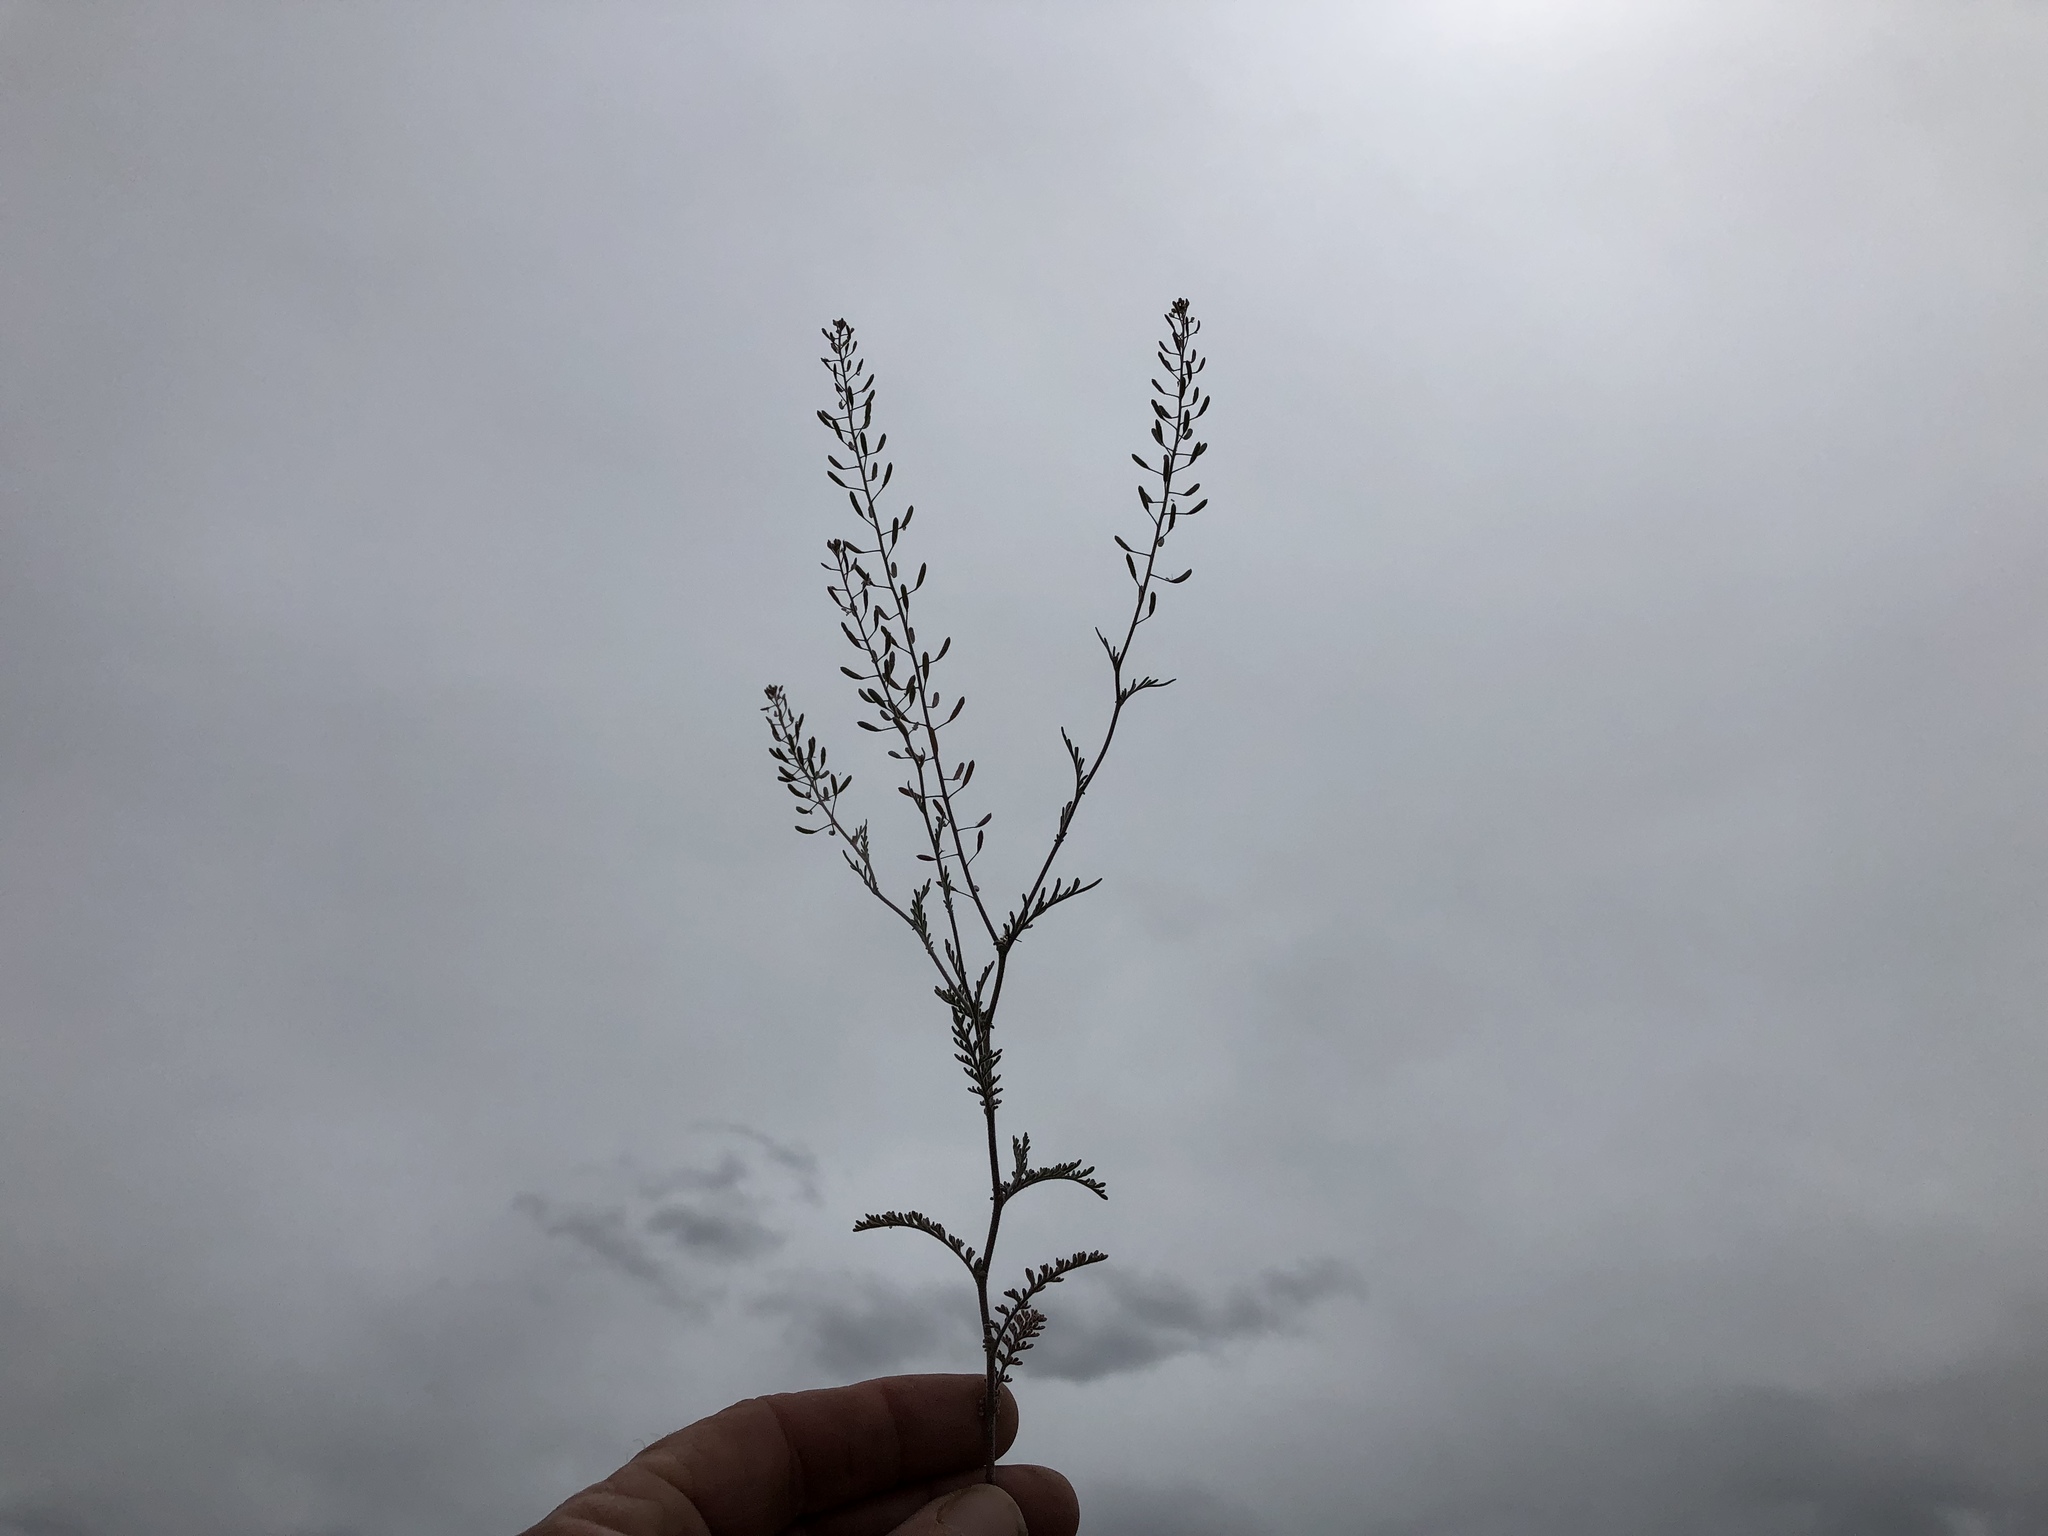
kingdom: Plantae
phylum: Tracheophyta
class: Magnoliopsida
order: Brassicales
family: Brassicaceae
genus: Descurainia
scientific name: Descurainia pinnata
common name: Western tansy mustard
